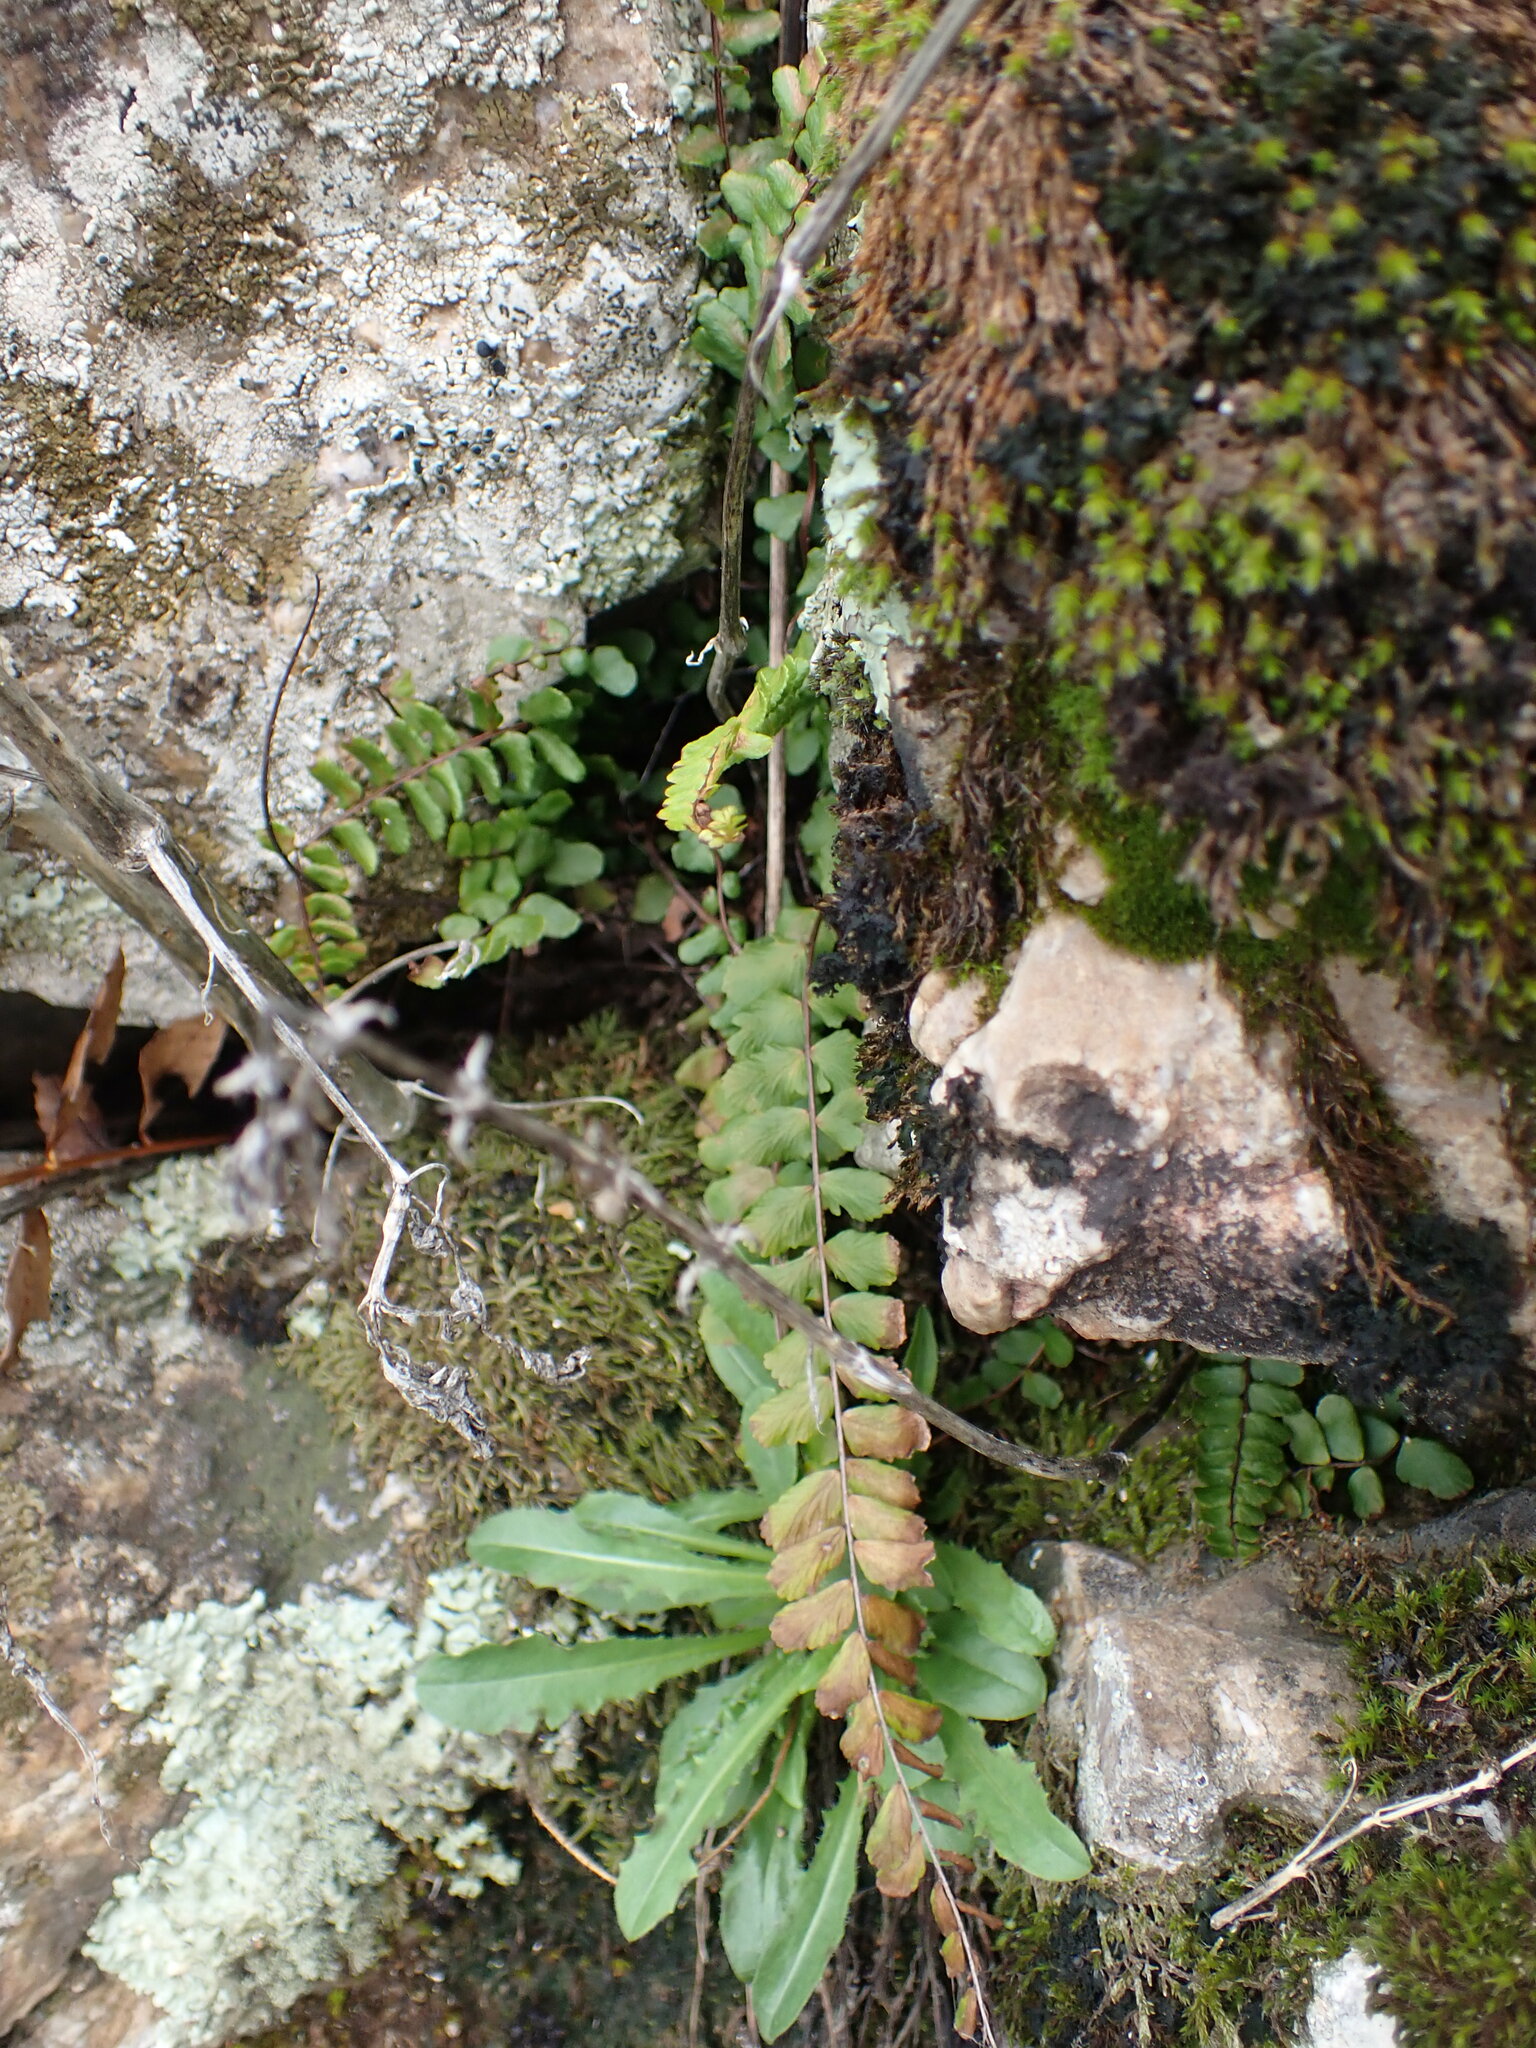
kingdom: Plantae
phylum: Tracheophyta
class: Polypodiopsida
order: Polypodiales
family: Aspleniaceae
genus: Asplenium
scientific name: Asplenium trichomanes
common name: Maidenhair spleenwort
